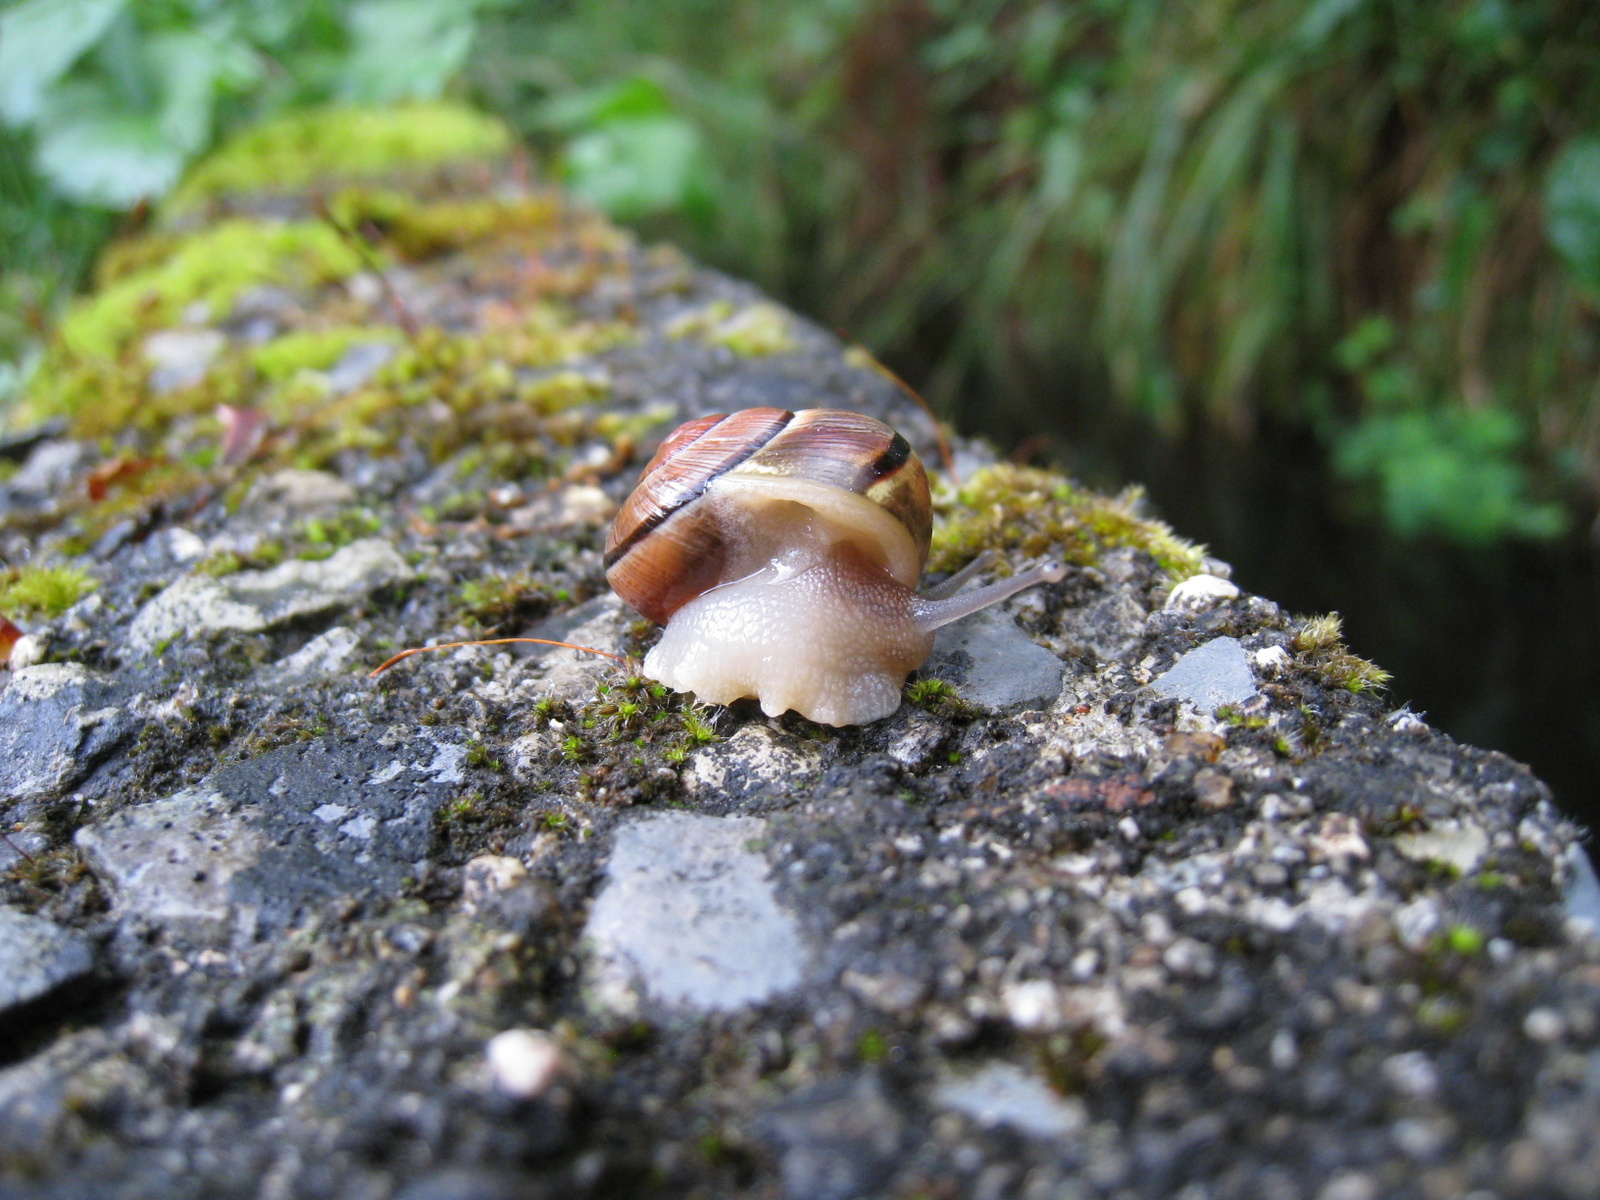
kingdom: Animalia
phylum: Mollusca
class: Gastropoda
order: Stylommatophora
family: Helicidae
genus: Cepaea
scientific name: Cepaea nemoralis
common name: Grovesnail
